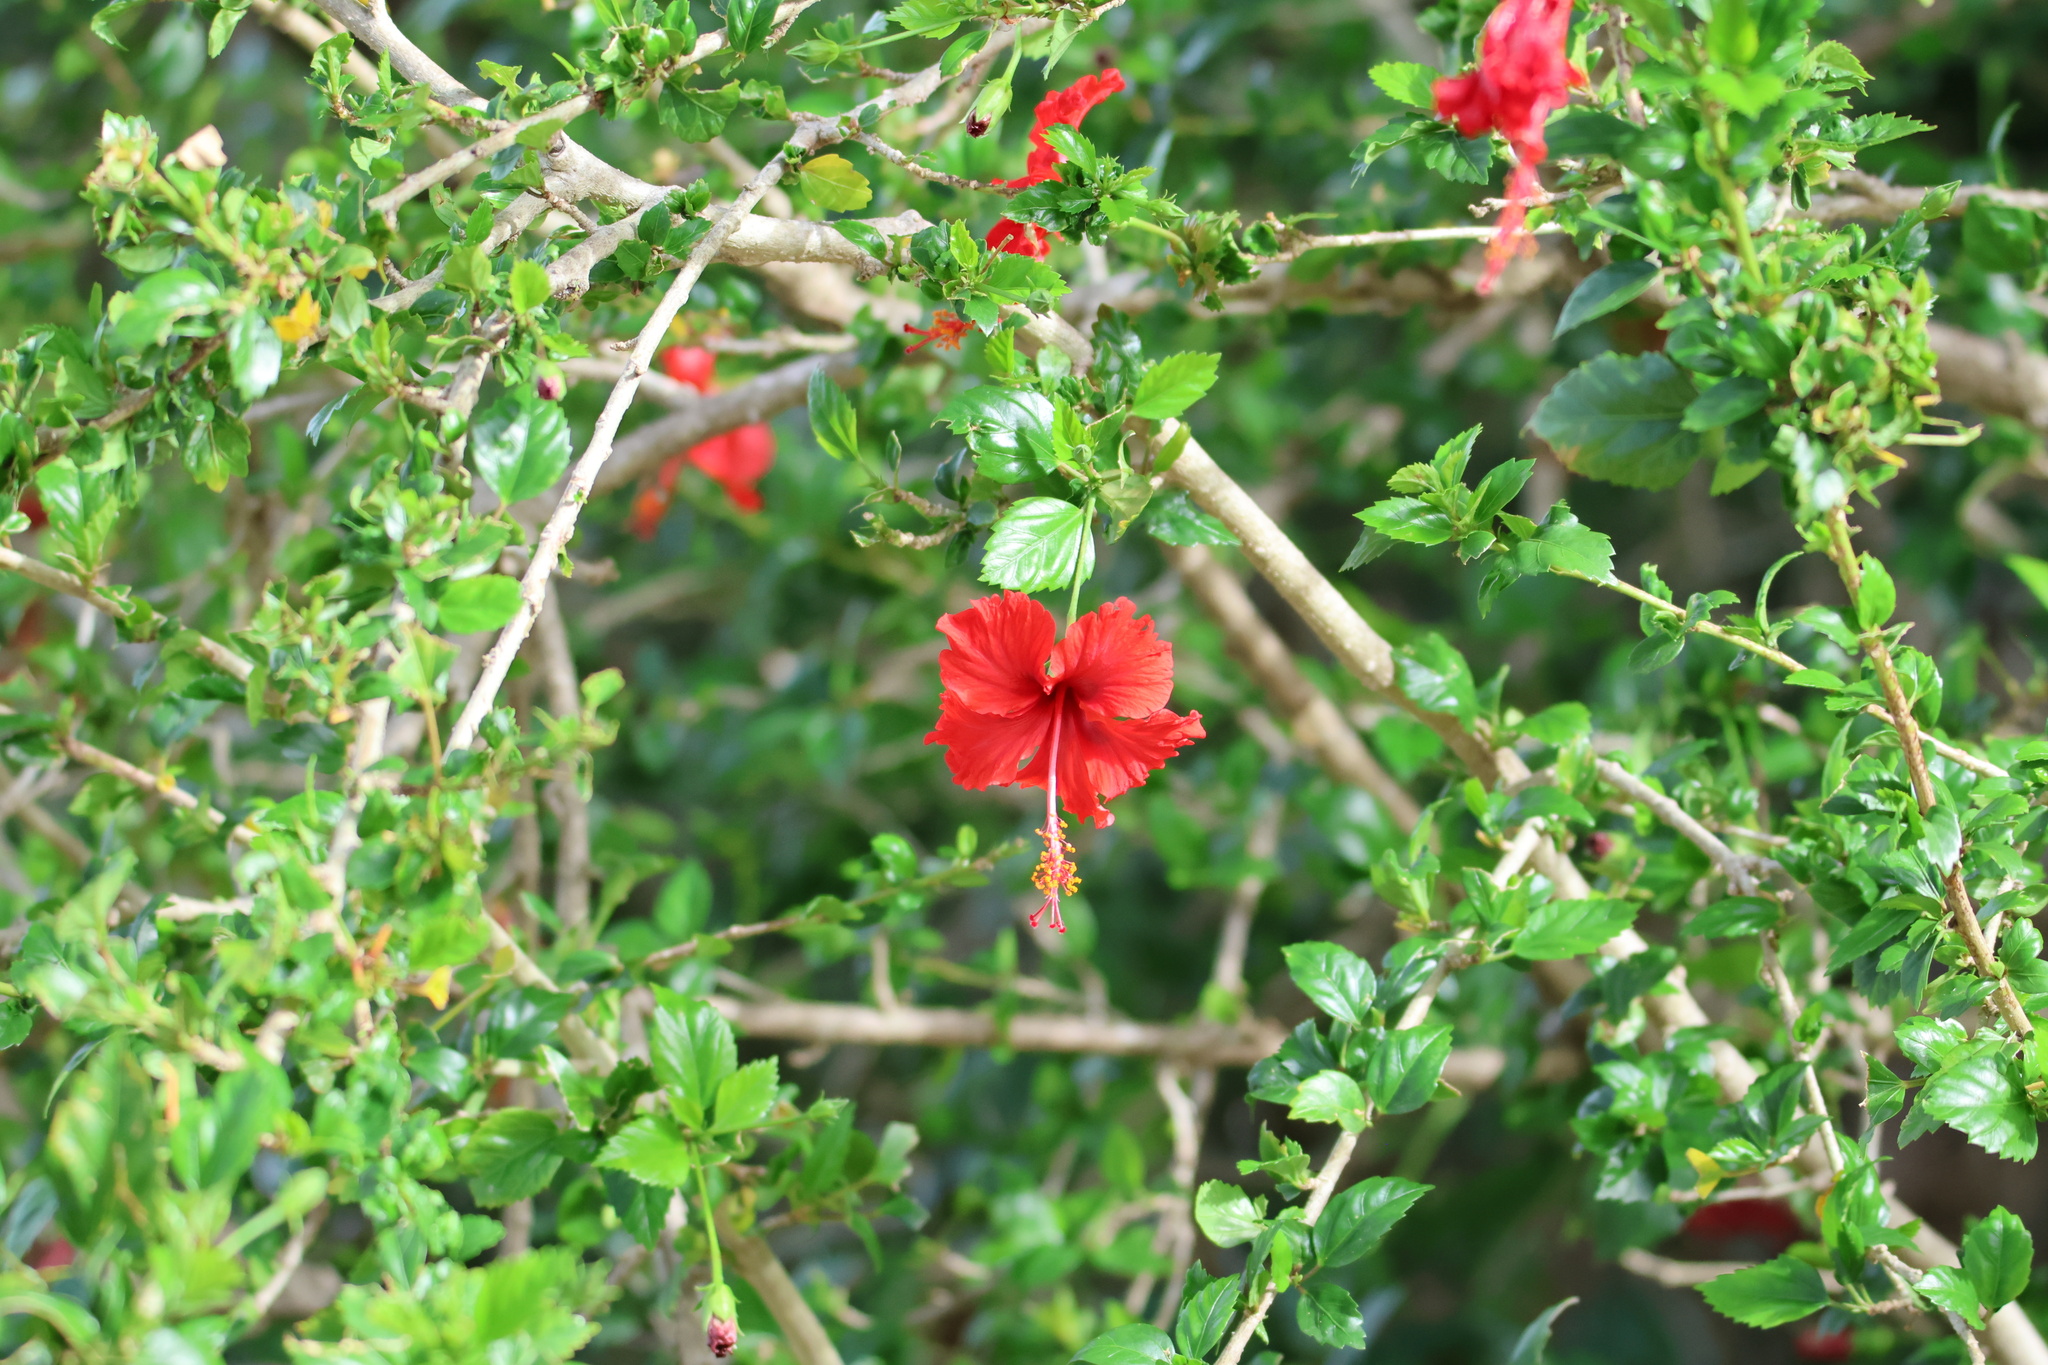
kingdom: Plantae
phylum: Tracheophyta
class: Magnoliopsida
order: Malvales
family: Malvaceae
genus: Hibiscus
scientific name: Hibiscus archeri
